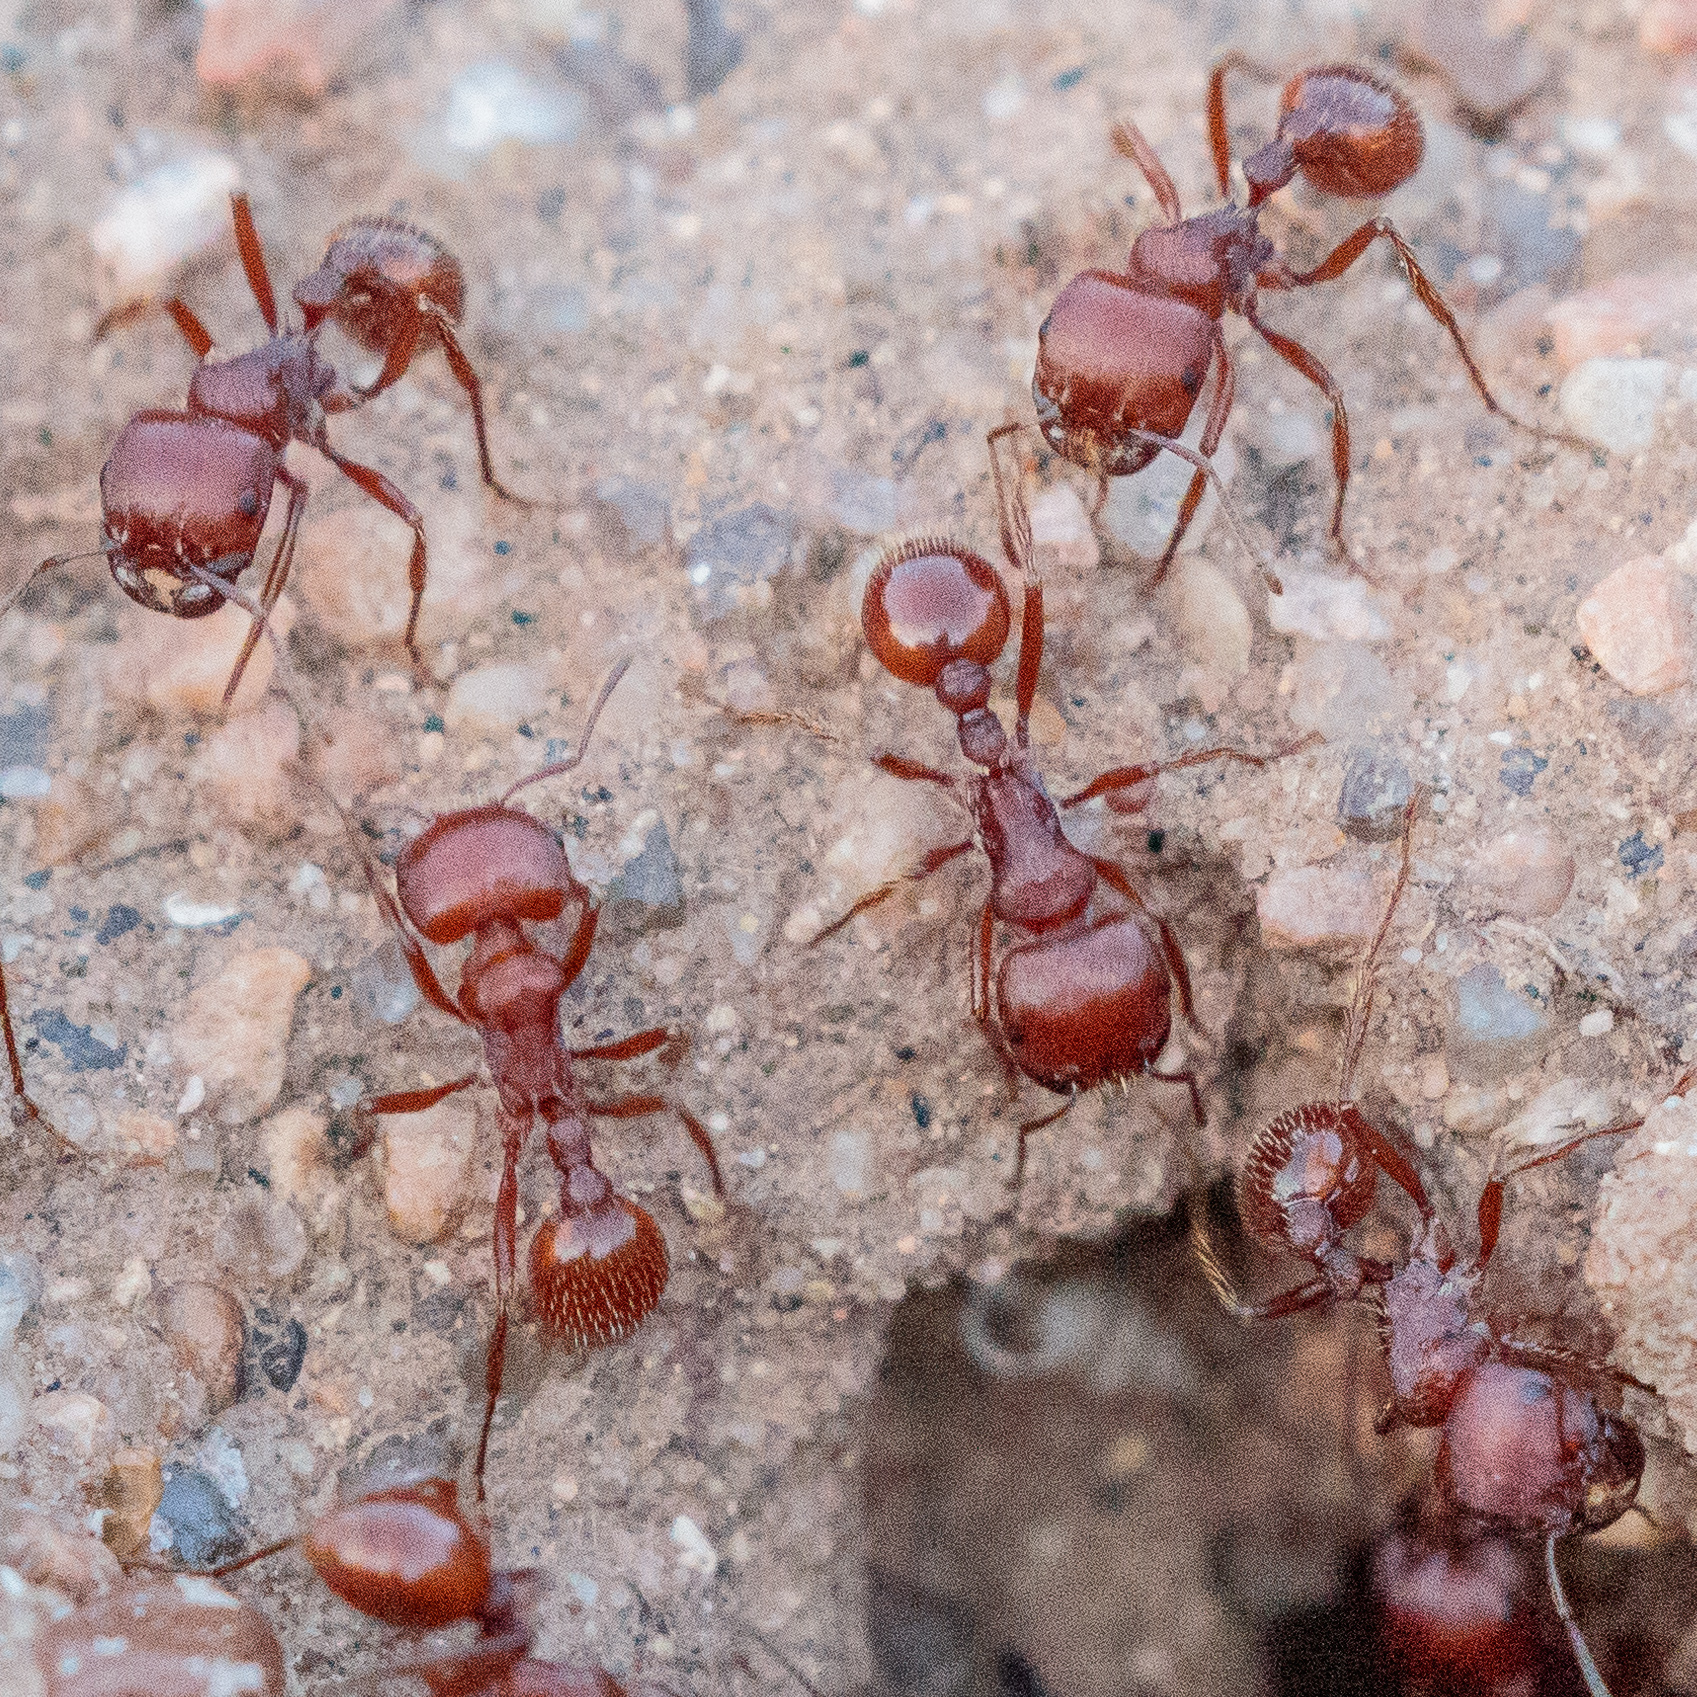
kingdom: Animalia
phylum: Arthropoda
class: Insecta
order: Hymenoptera
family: Formicidae
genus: Pogonomyrmex
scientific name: Pogonomyrmex barbatus
